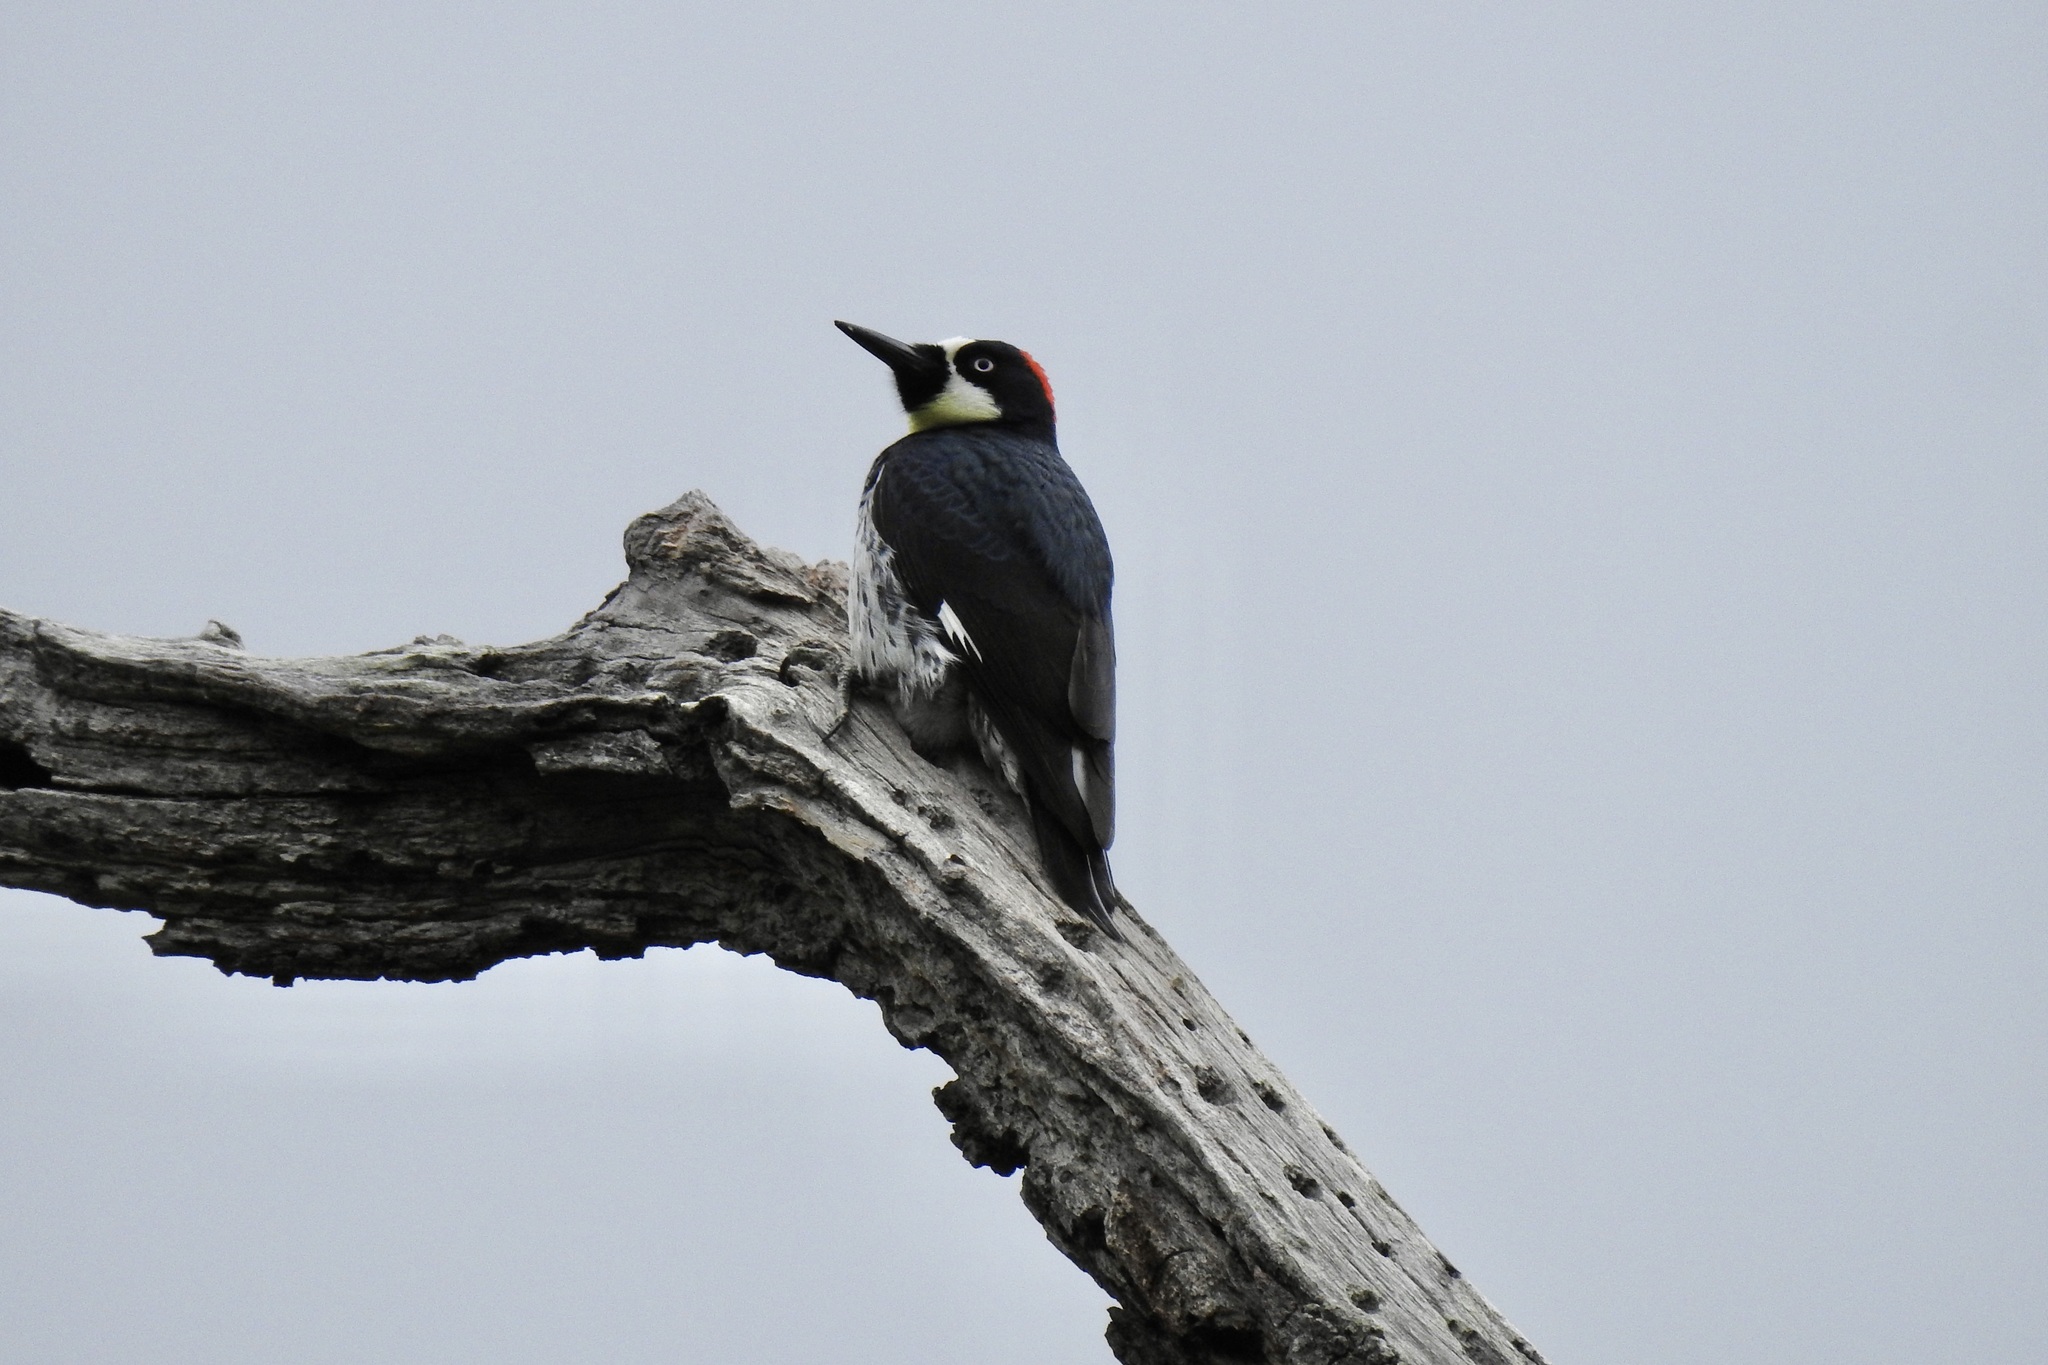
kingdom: Animalia
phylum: Chordata
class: Aves
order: Piciformes
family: Picidae
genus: Melanerpes
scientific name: Melanerpes formicivorus
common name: Acorn woodpecker
